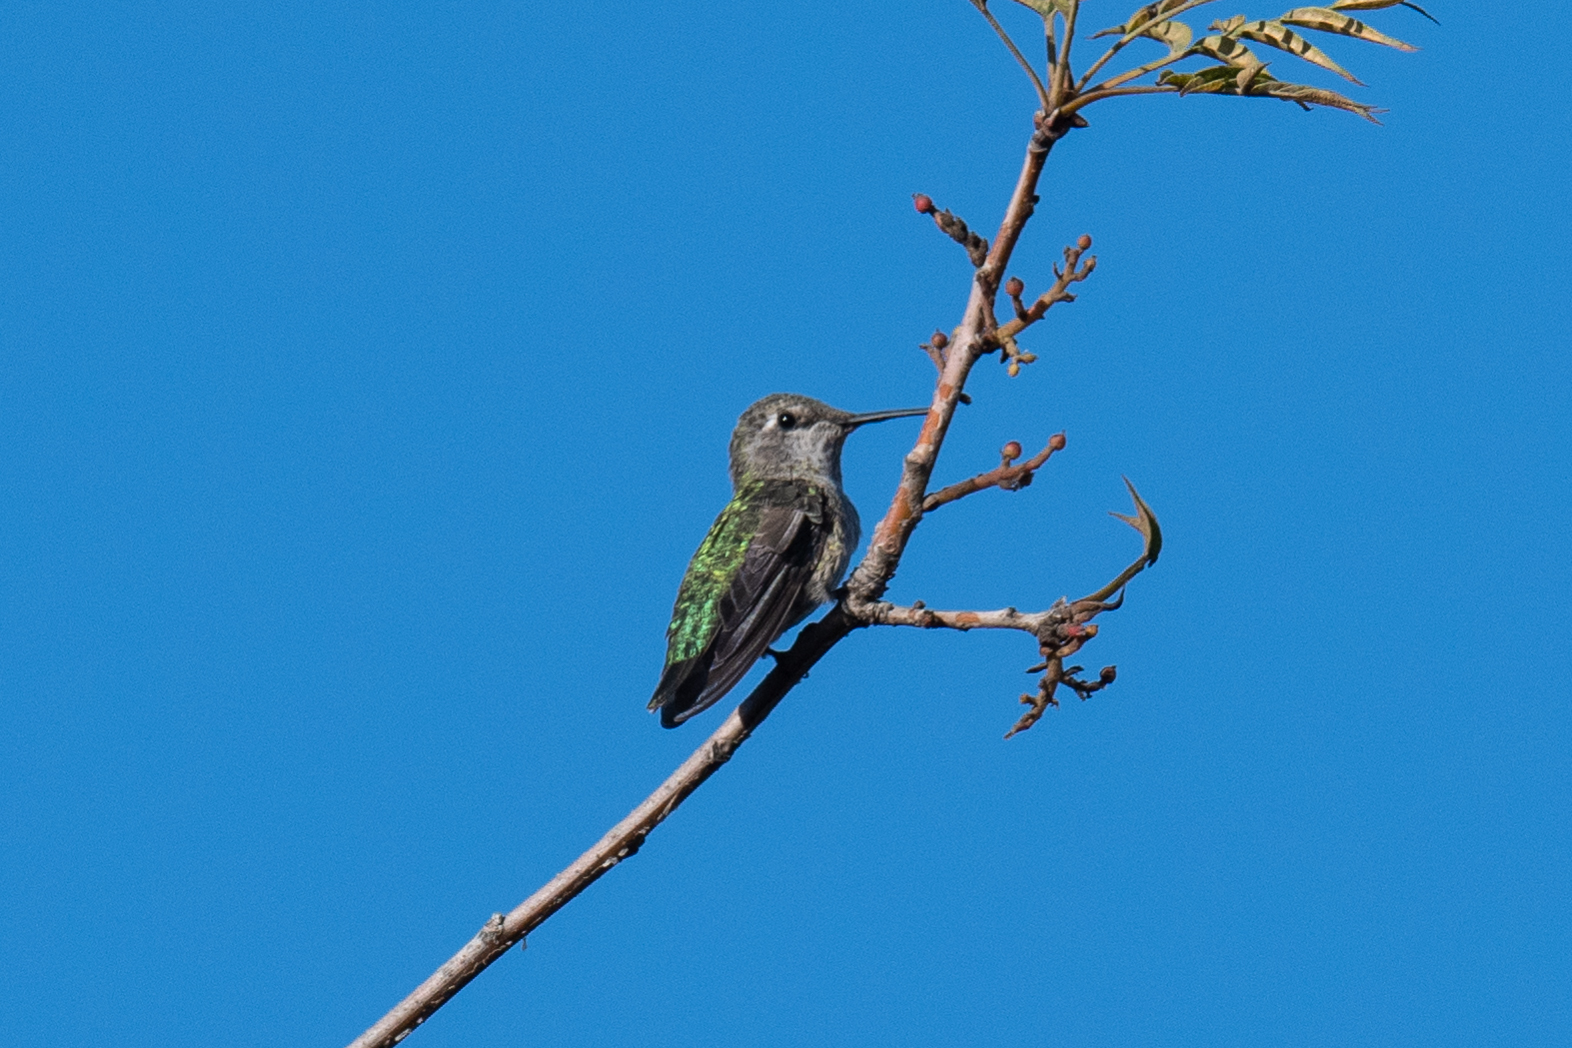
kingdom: Animalia
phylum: Chordata
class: Aves
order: Apodiformes
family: Trochilidae
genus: Calypte
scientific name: Calypte anna
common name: Anna's hummingbird
